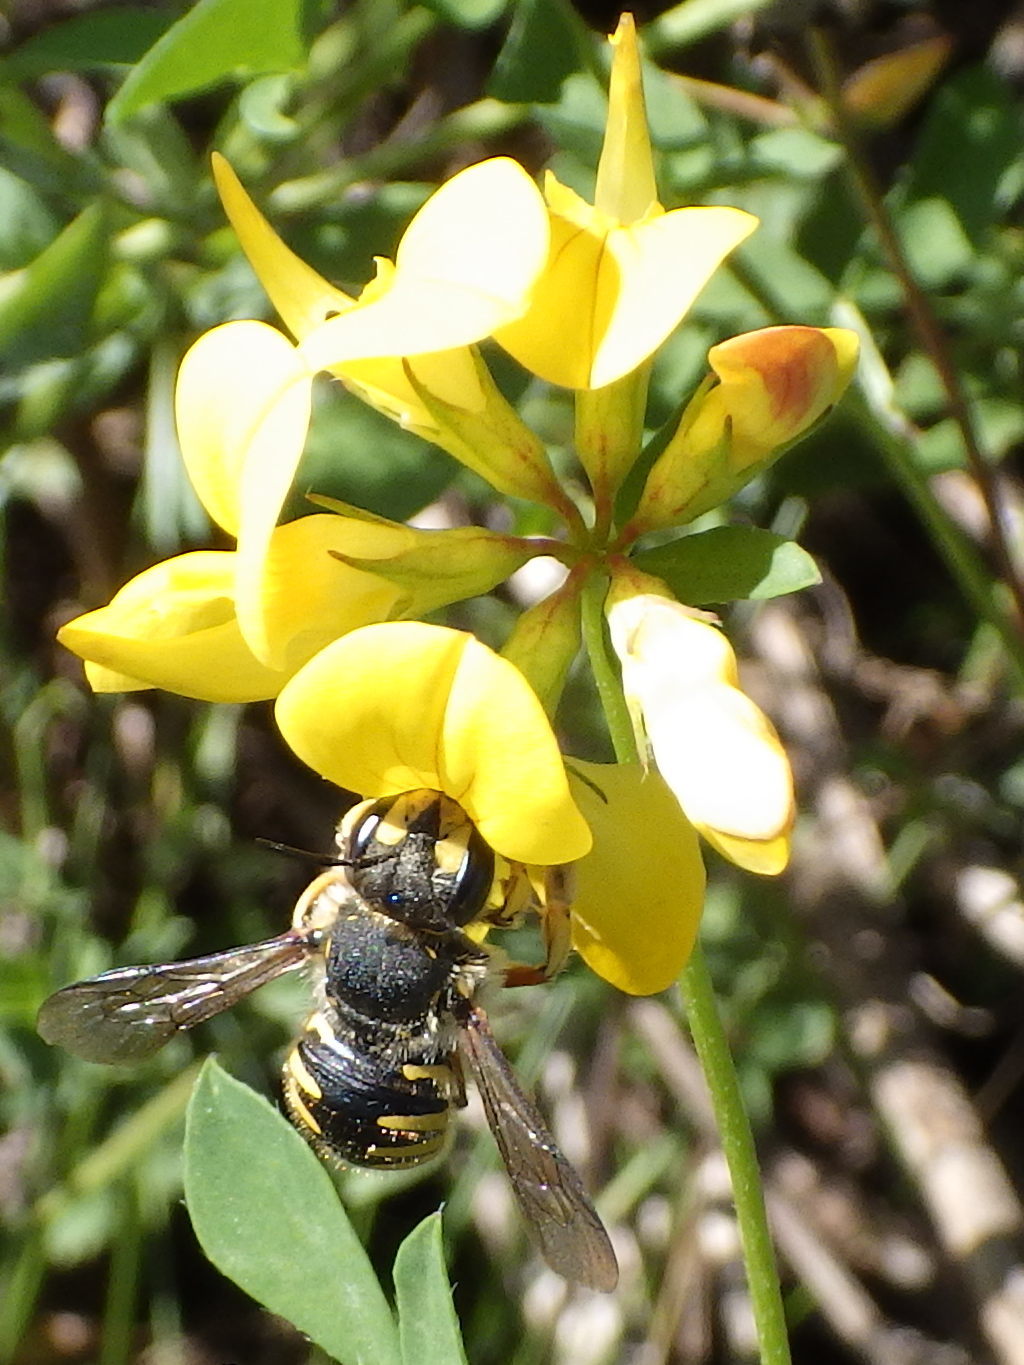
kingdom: Animalia
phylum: Arthropoda
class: Insecta
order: Hymenoptera
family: Megachilidae
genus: Anthidium
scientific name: Anthidium manicatum
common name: Wool carder bee
